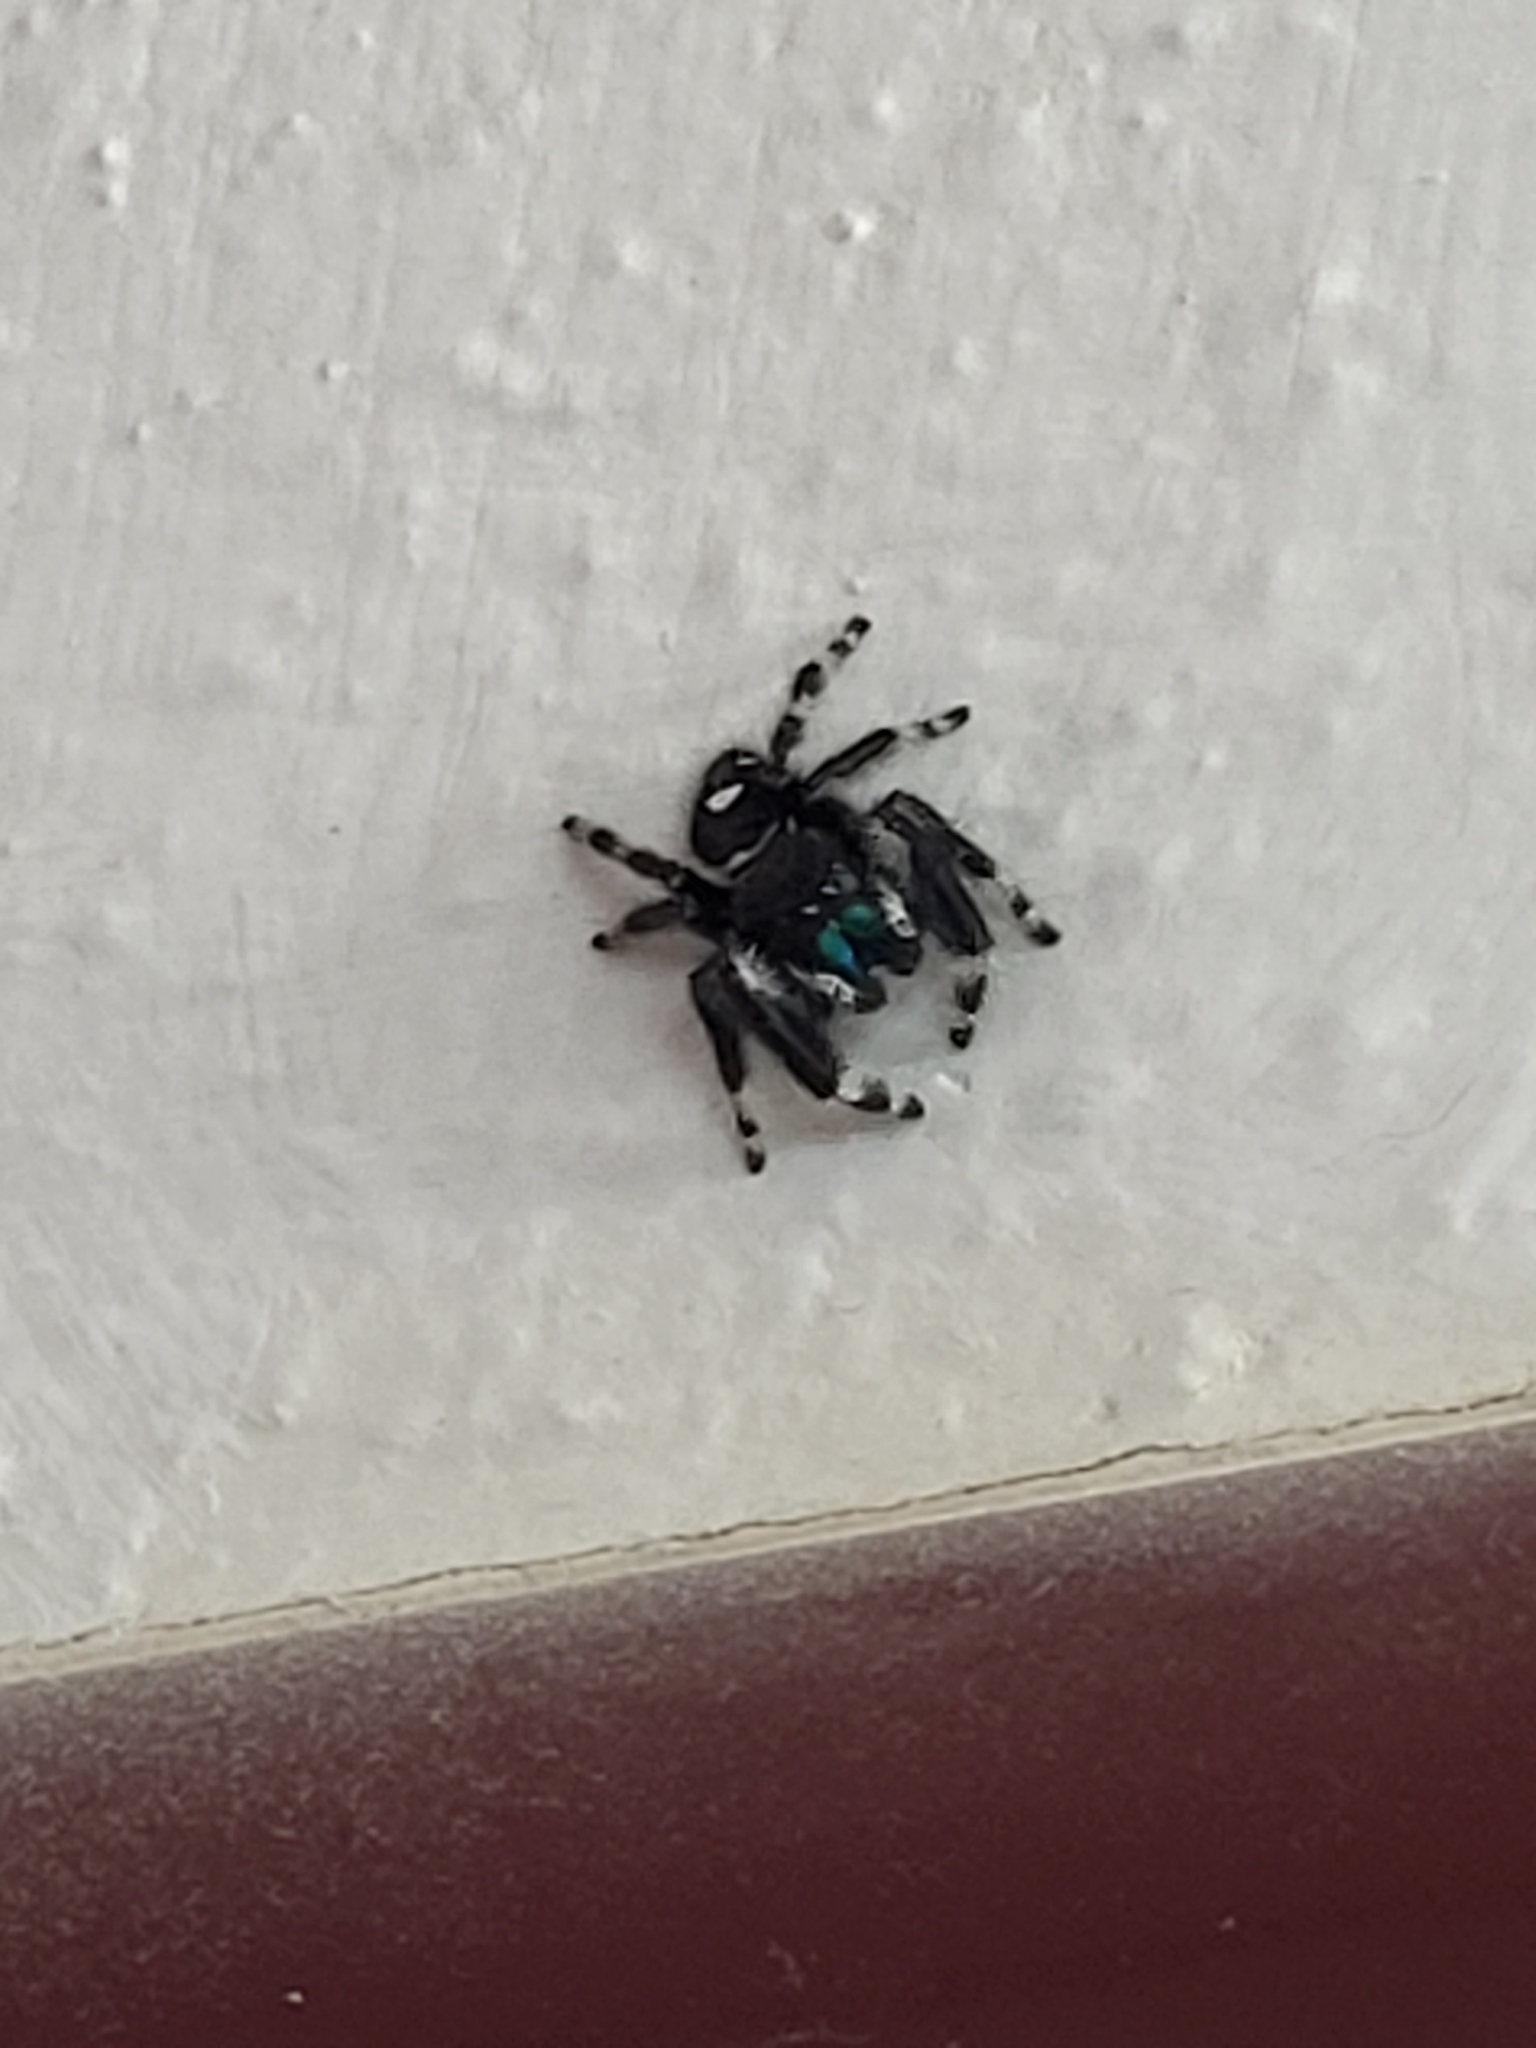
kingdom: Animalia
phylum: Arthropoda
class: Arachnida
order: Araneae
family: Salticidae
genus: Phidippus
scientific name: Phidippus audax
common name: Bold jumper
